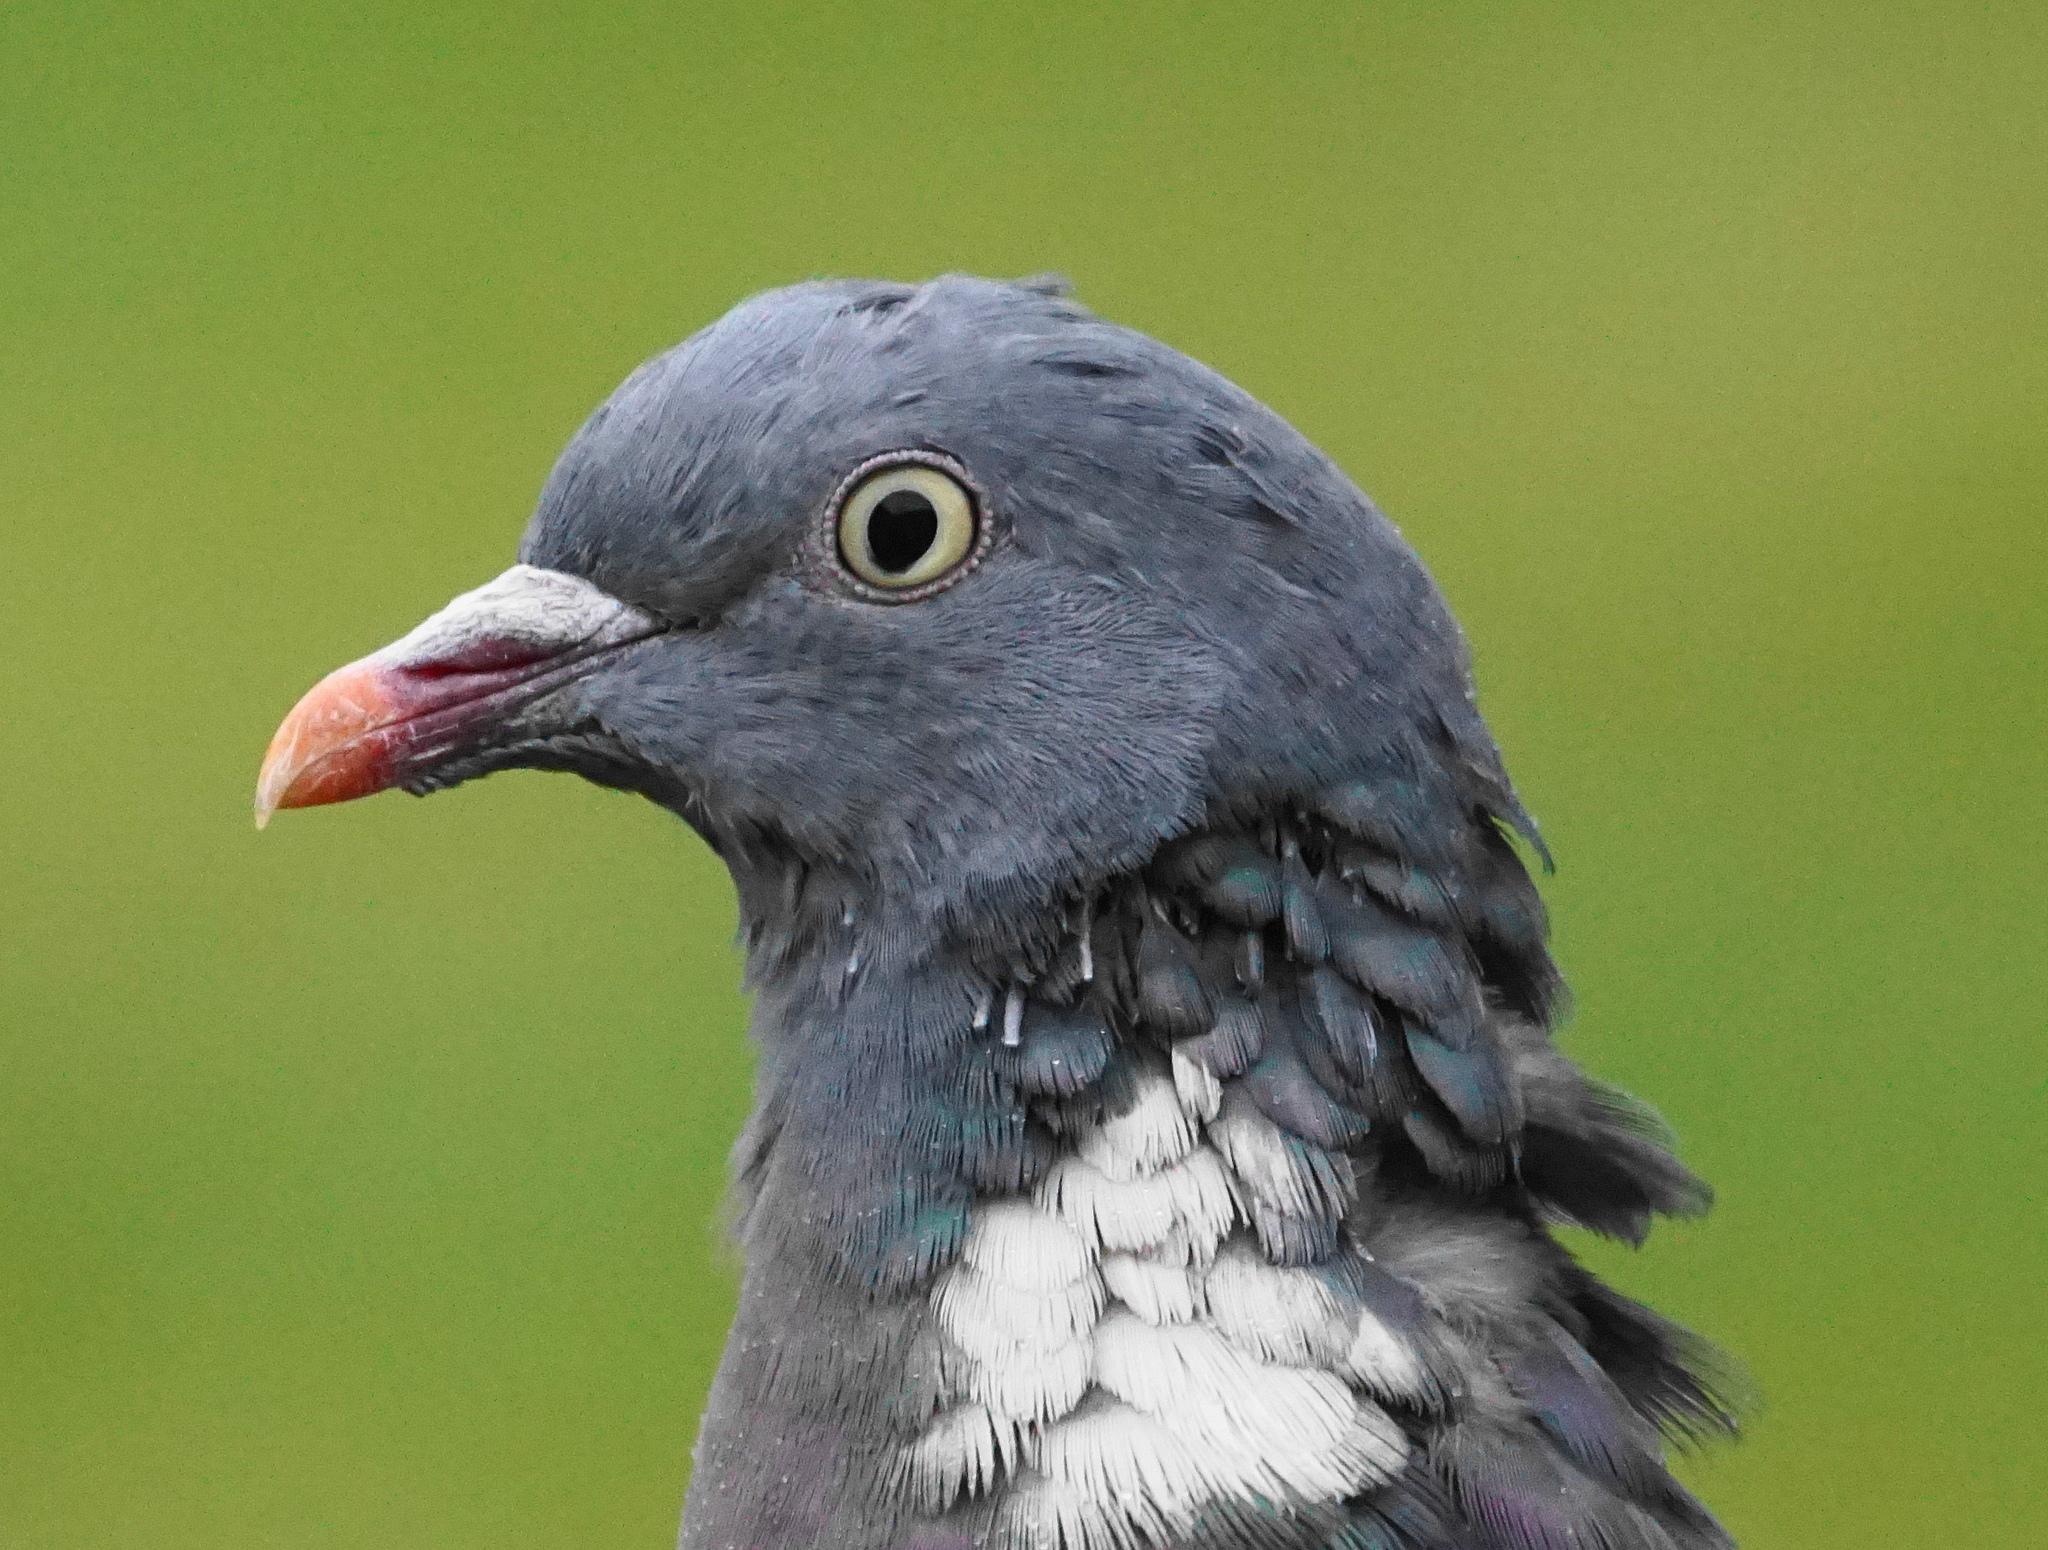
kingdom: Animalia
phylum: Chordata
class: Aves
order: Columbiformes
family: Columbidae
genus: Columba
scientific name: Columba palumbus
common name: Common wood pigeon
